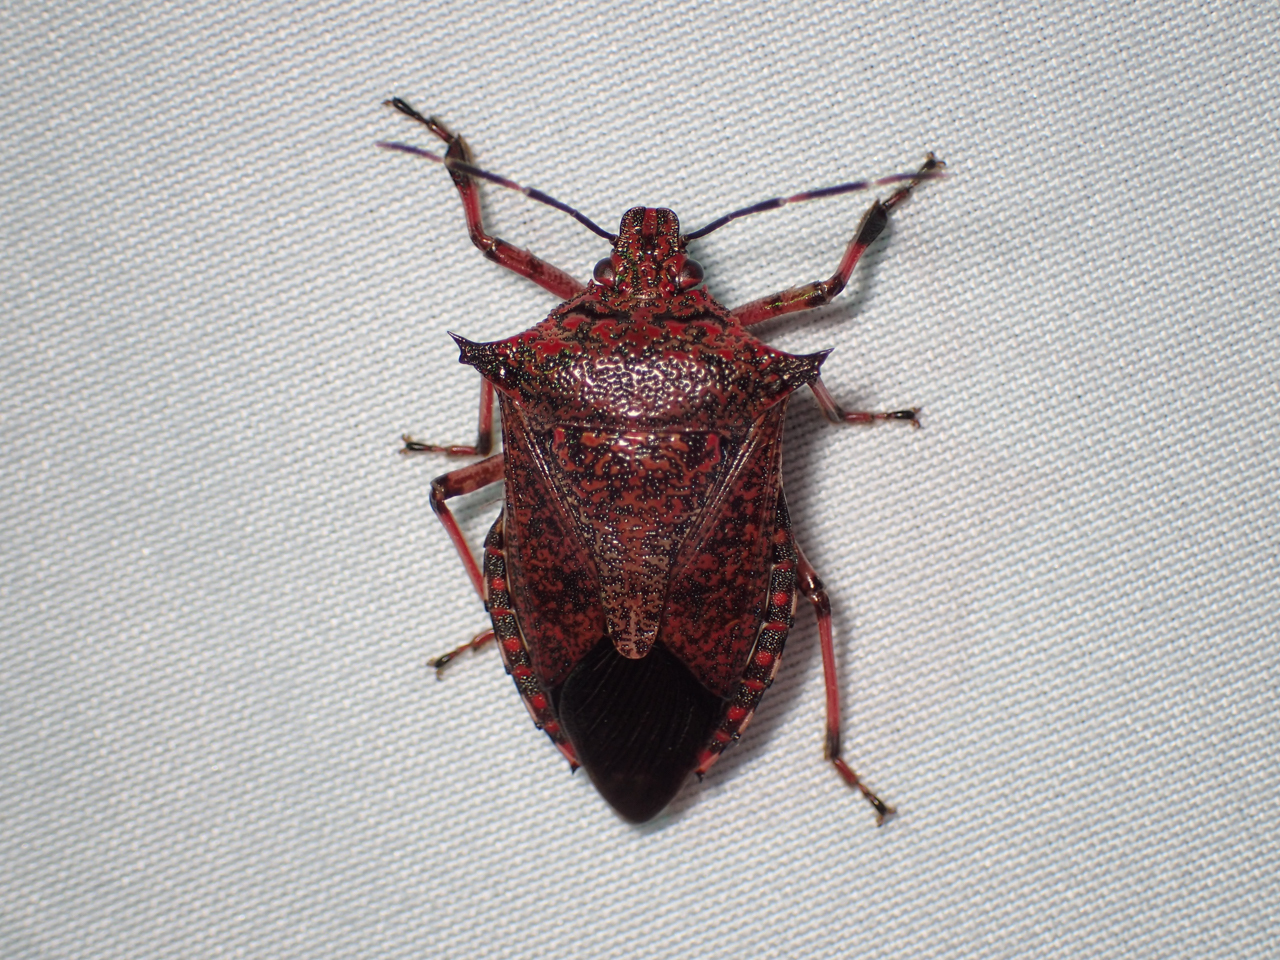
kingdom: Animalia
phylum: Arthropoda
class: Insecta
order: Hemiptera
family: Pentatomidae
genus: Alcaeorrhynchus
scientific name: Alcaeorrhynchus grandis
